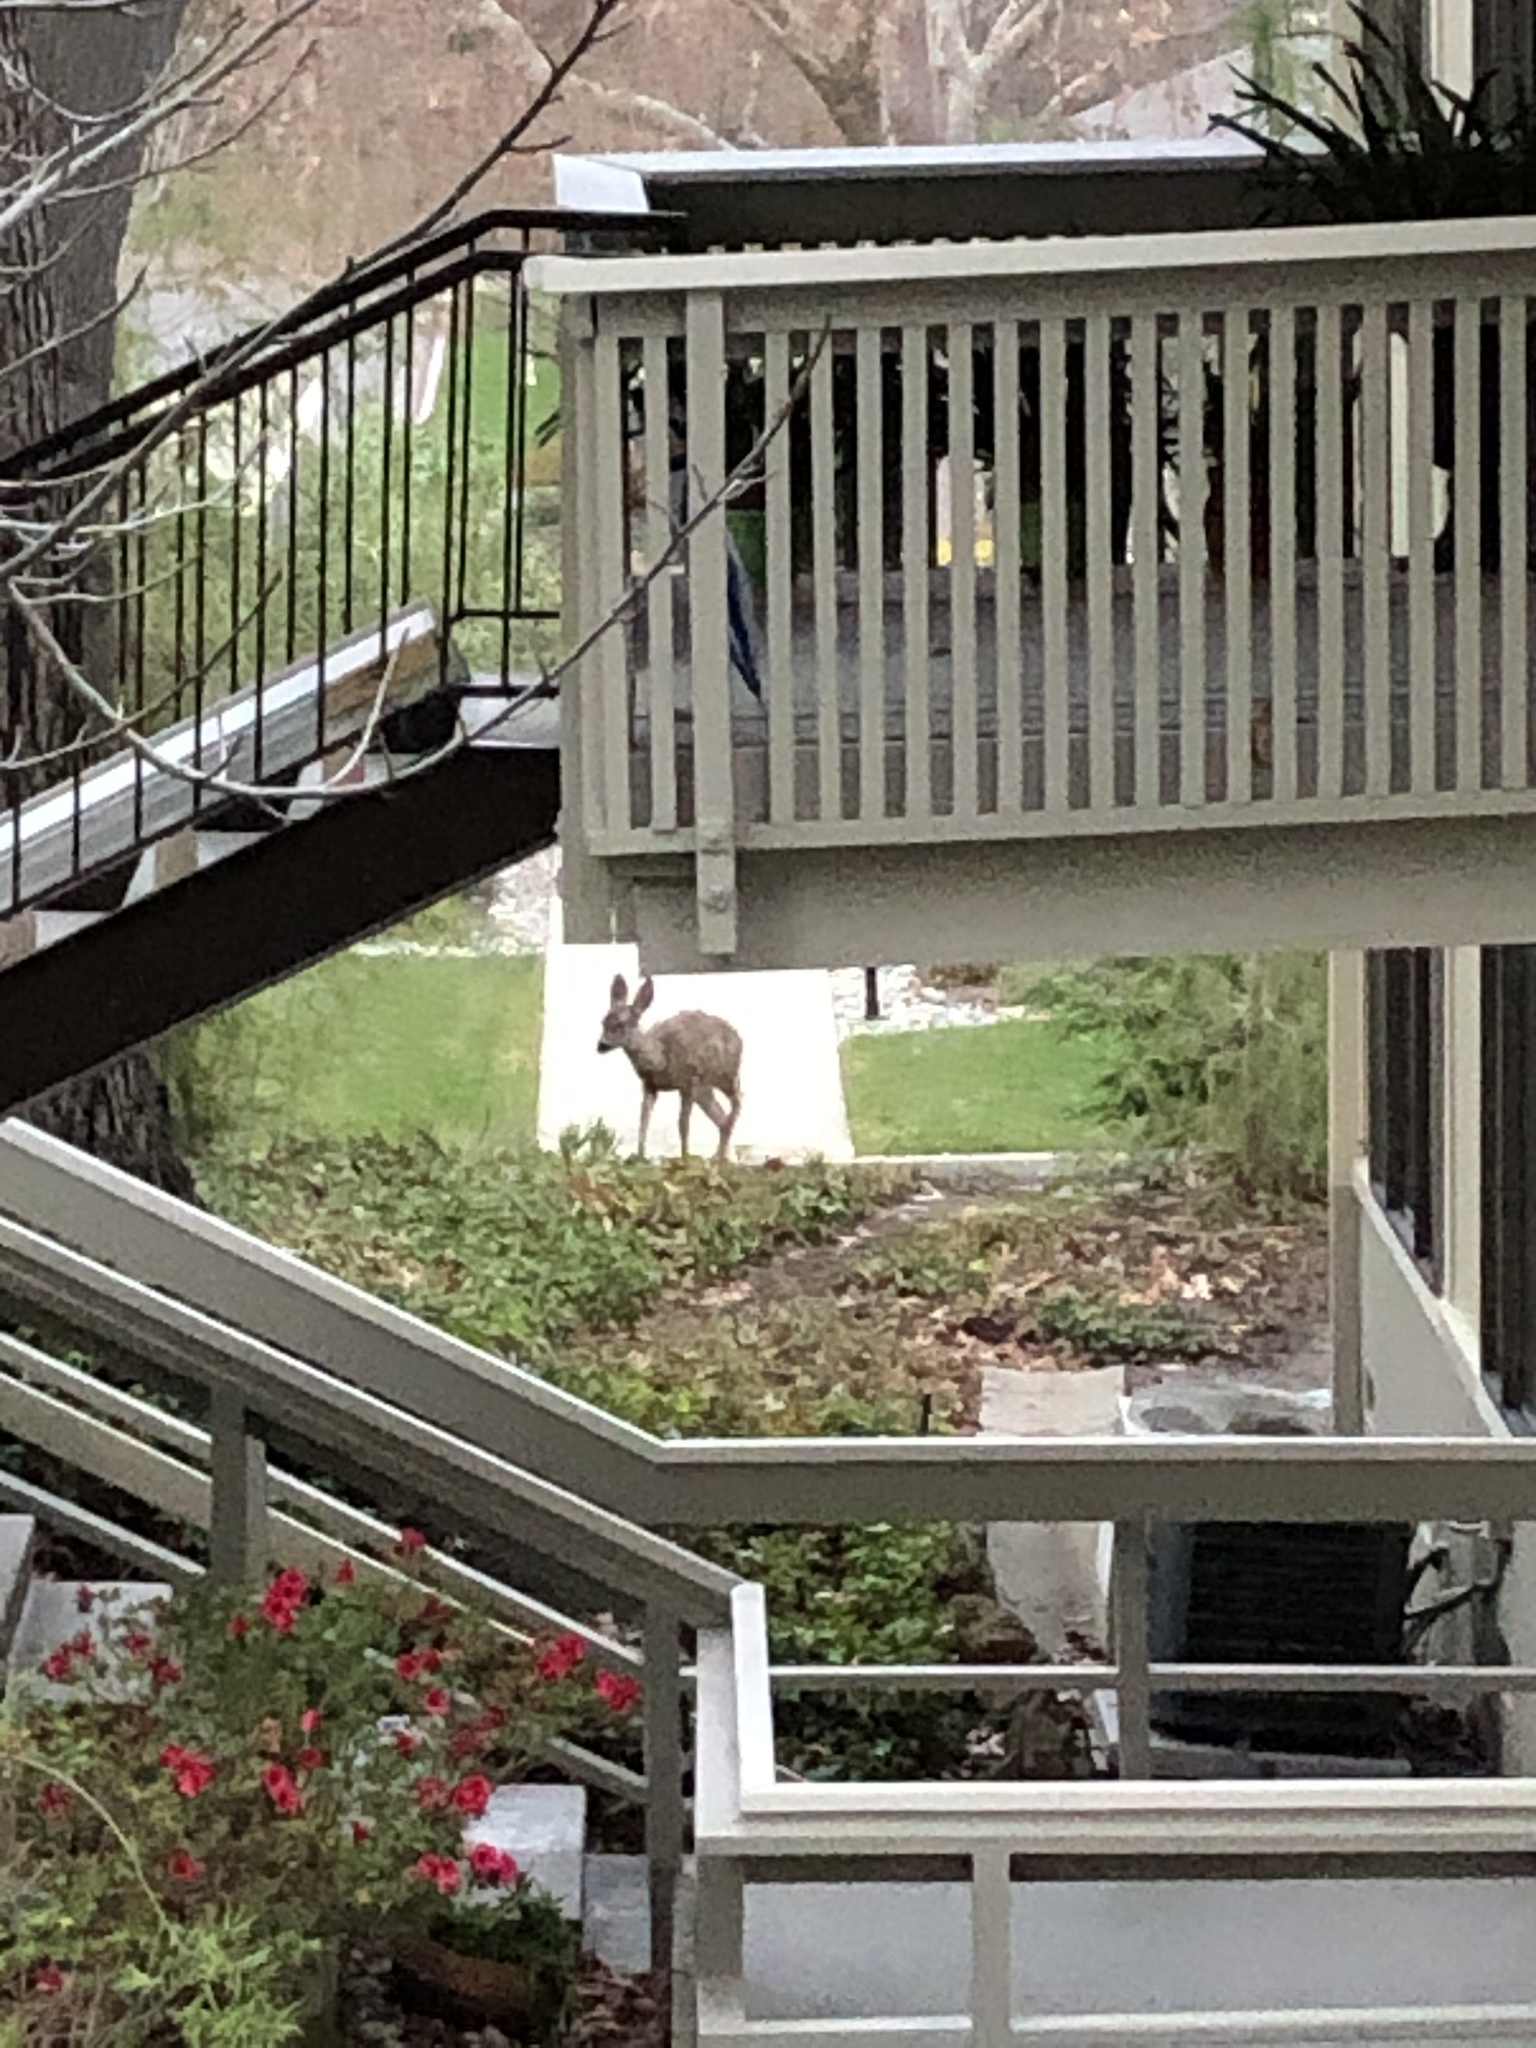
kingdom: Animalia
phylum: Chordata
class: Mammalia
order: Artiodactyla
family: Cervidae
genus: Odocoileus
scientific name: Odocoileus hemionus
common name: Mule deer
